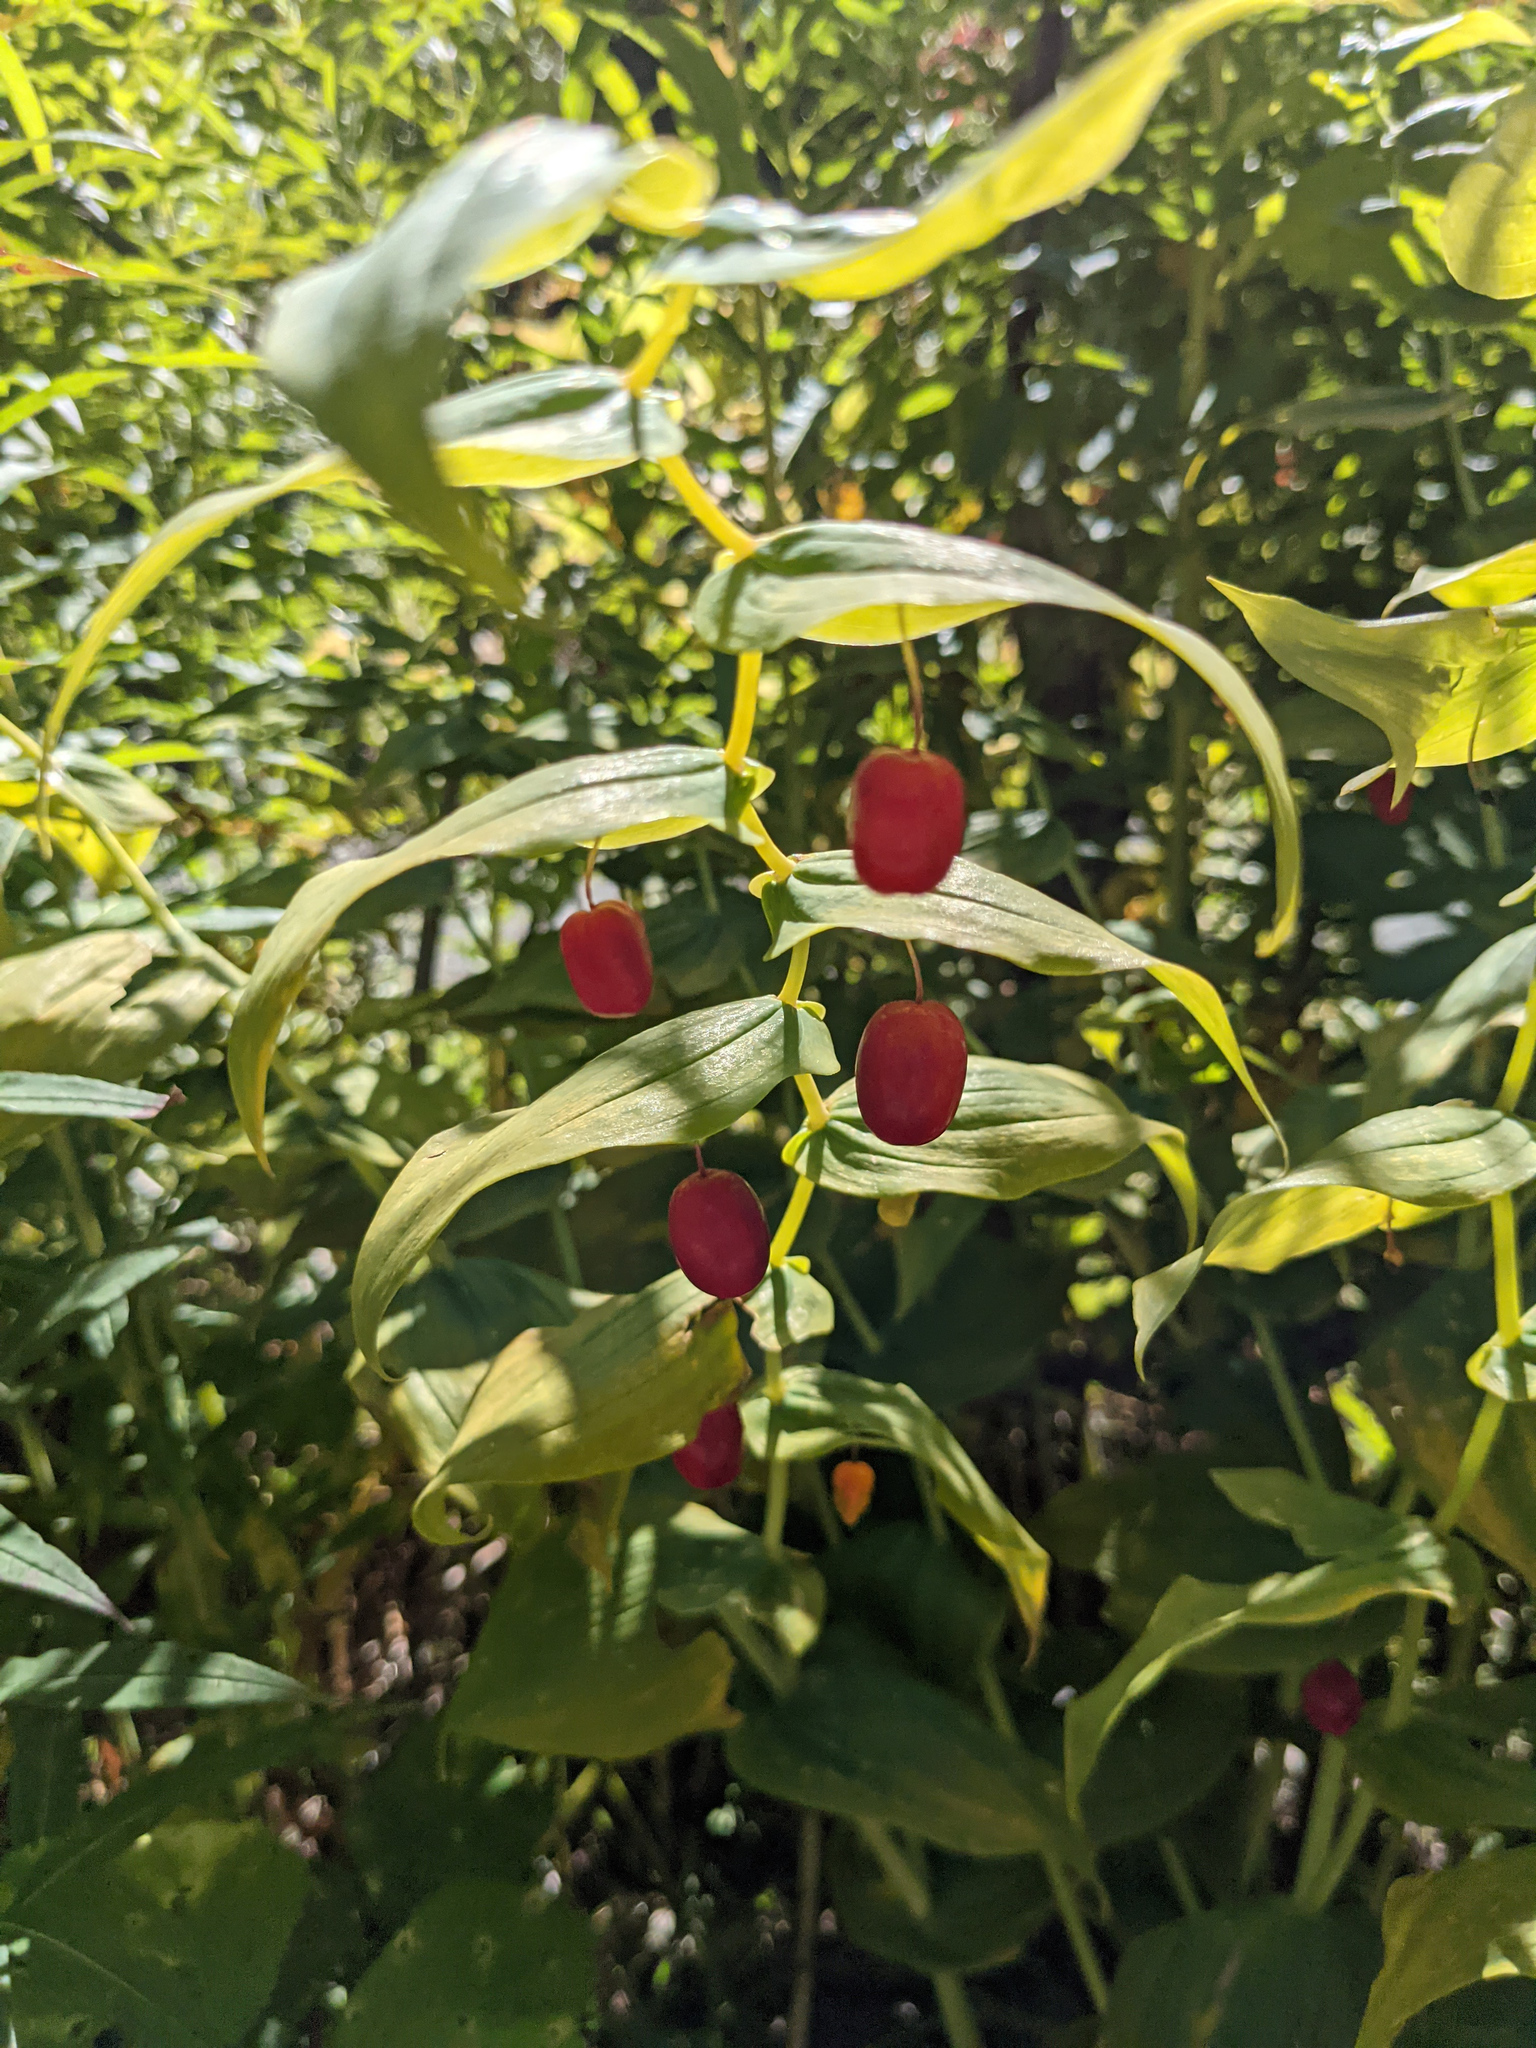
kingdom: Plantae
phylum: Tracheophyta
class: Liliopsida
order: Liliales
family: Liliaceae
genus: Streptopus
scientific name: Streptopus amplexifolius
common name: Clasp twisted stalk
